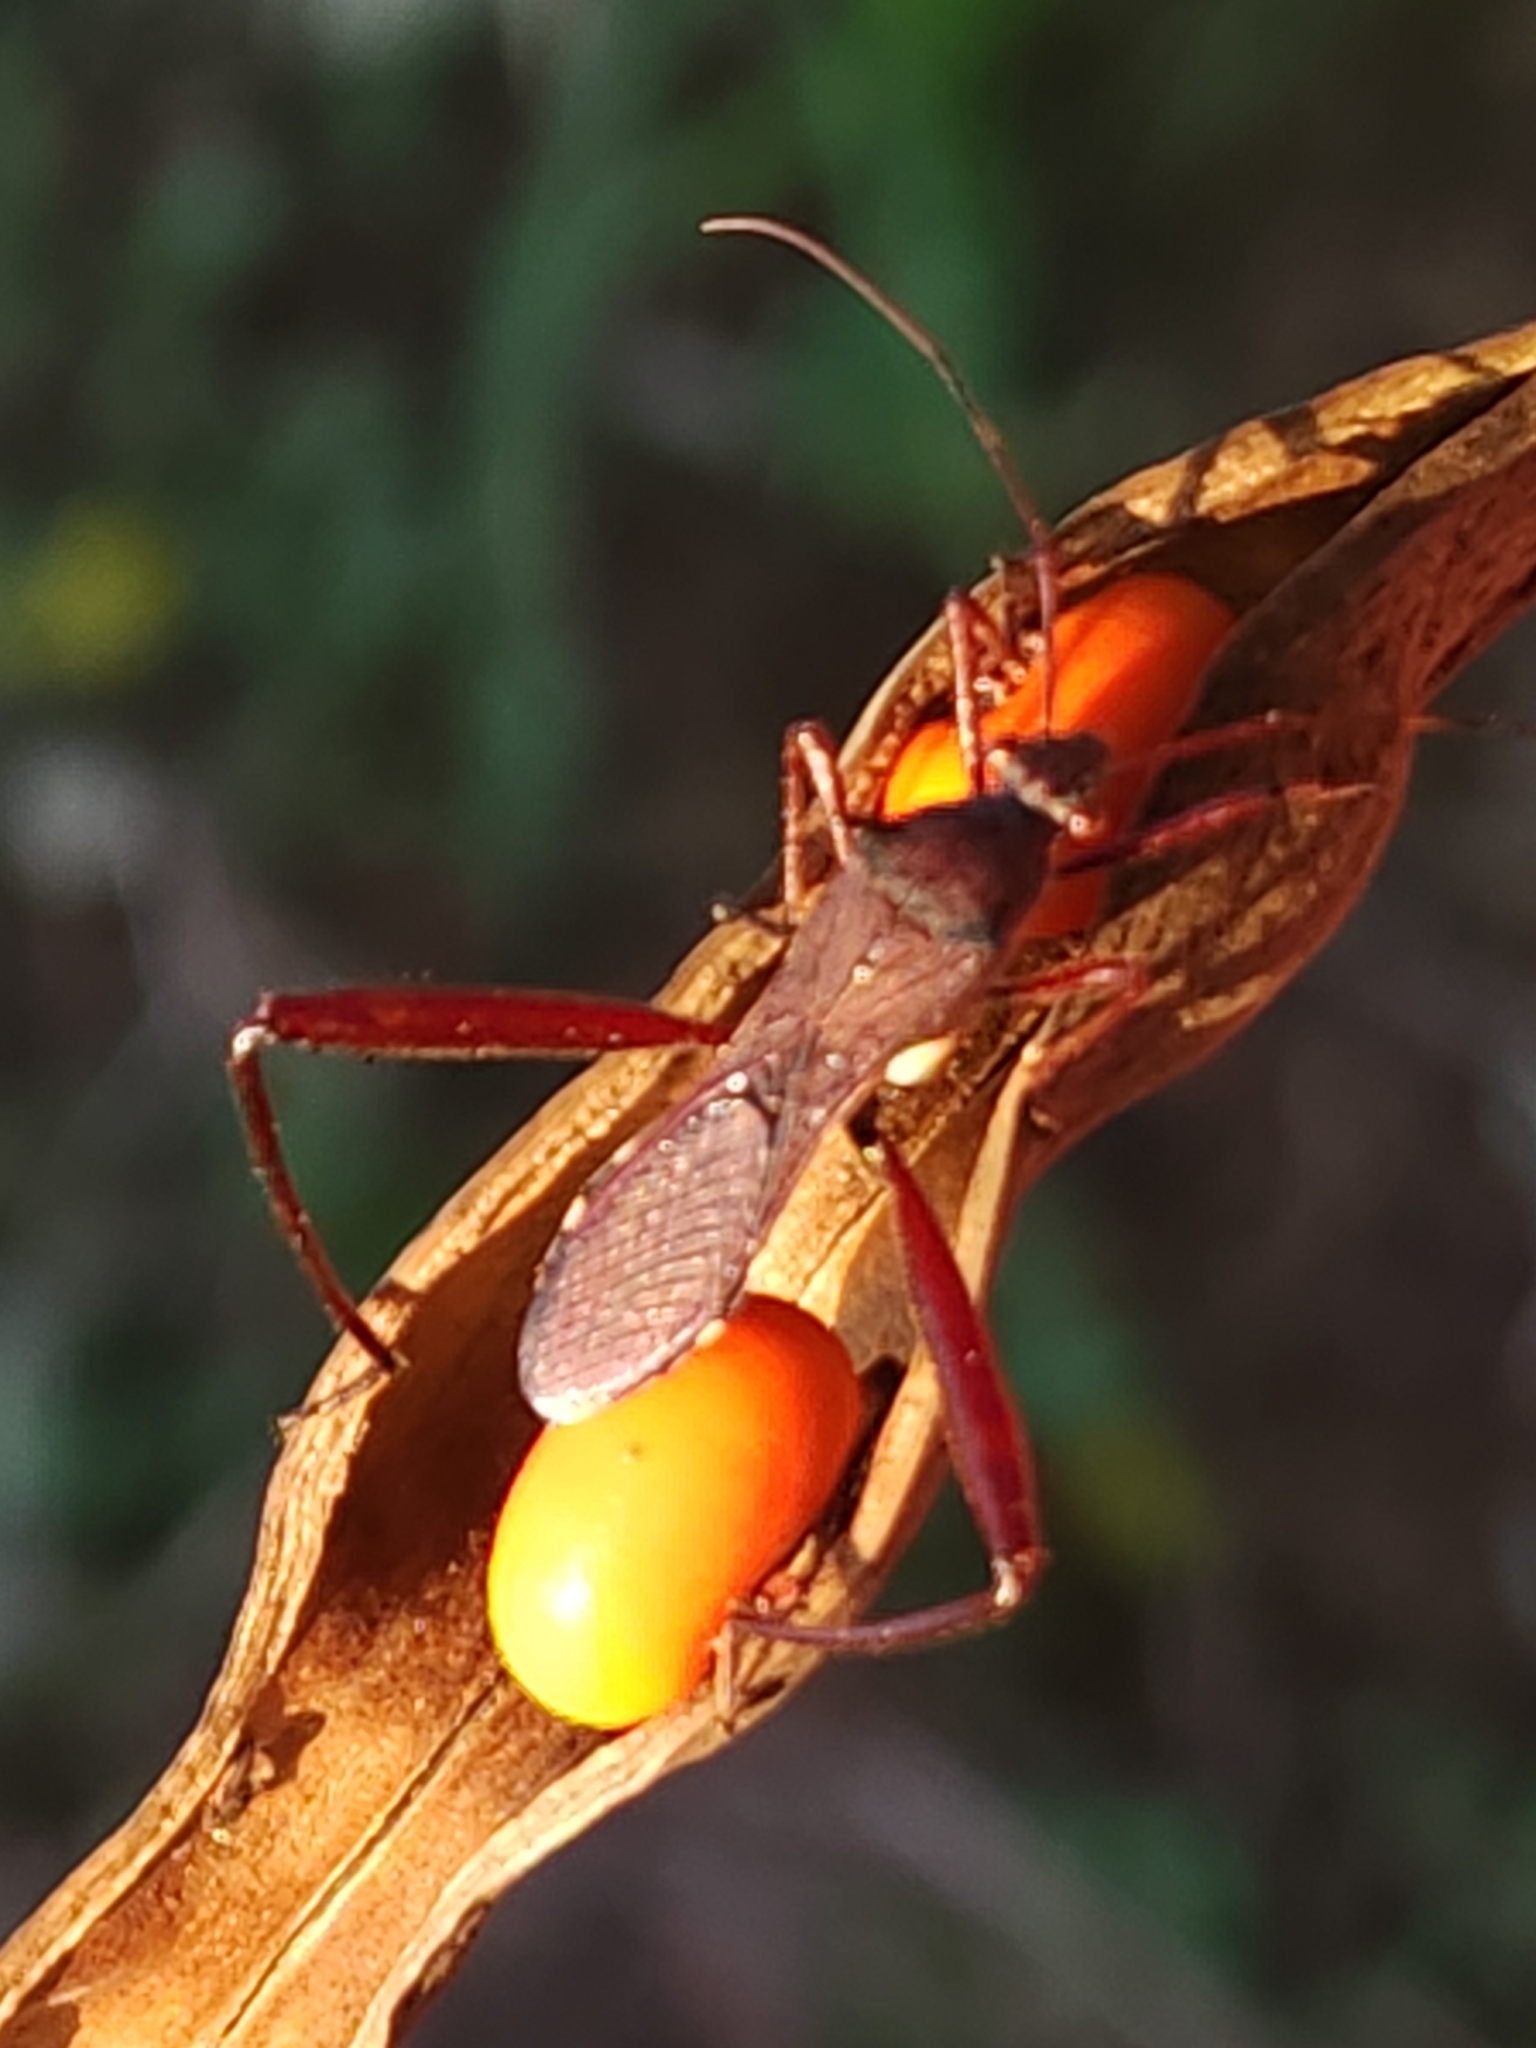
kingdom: Animalia
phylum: Arthropoda
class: Insecta
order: Hemiptera
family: Alydidae
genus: Riptortus
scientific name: Riptortus serripes
